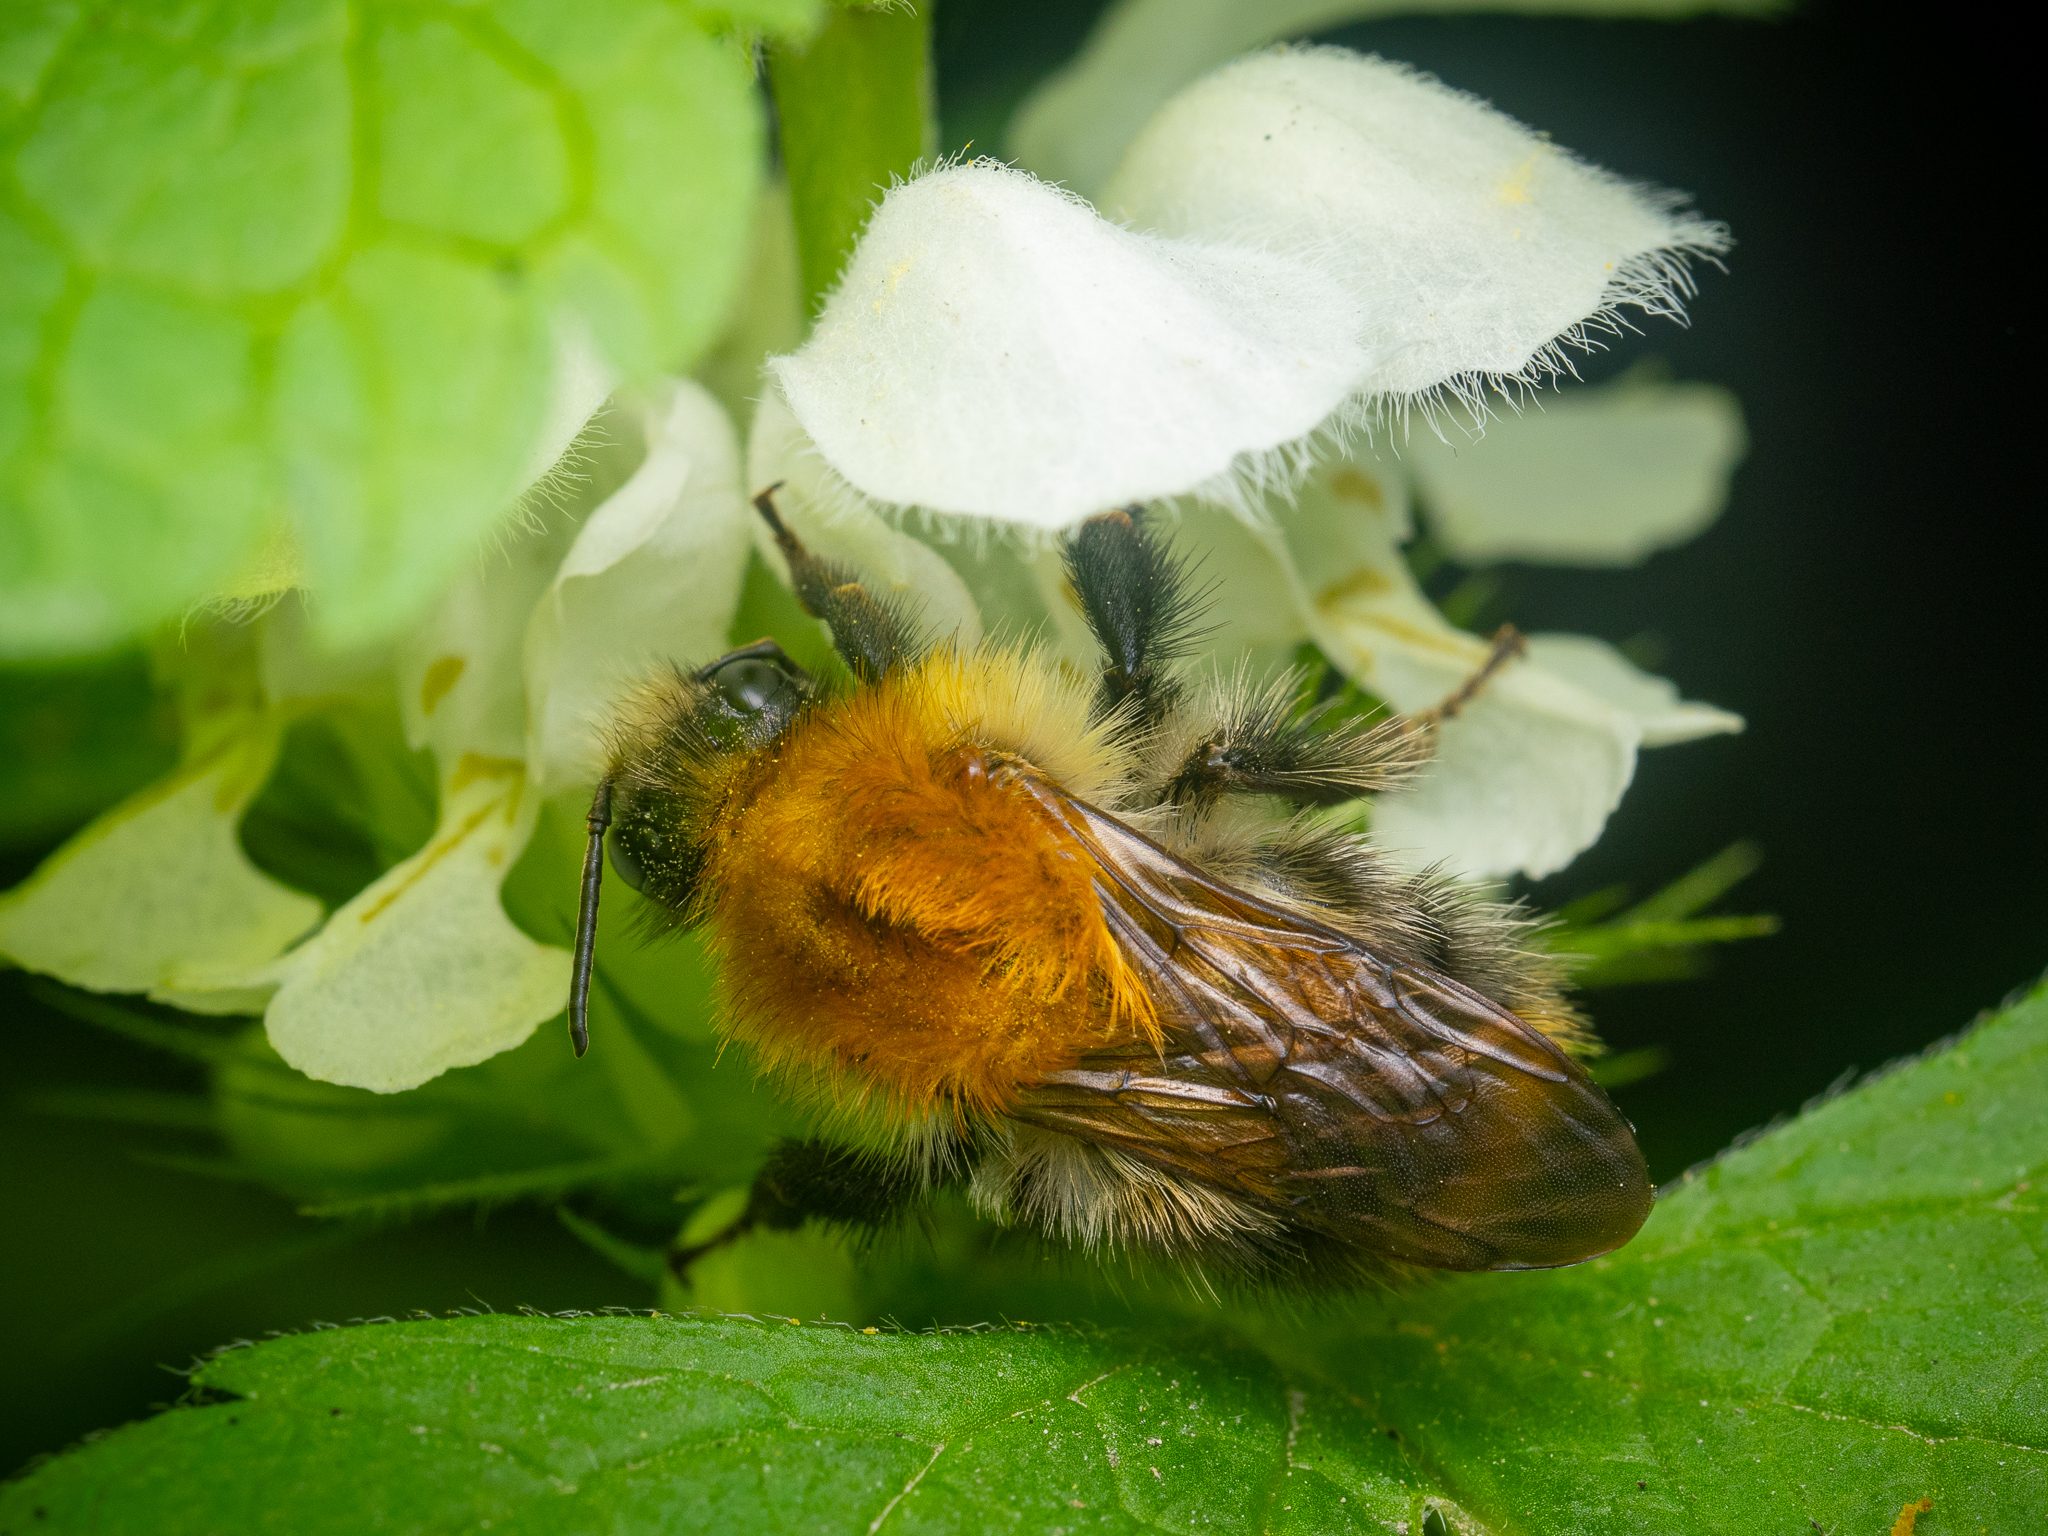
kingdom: Animalia
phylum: Arthropoda
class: Insecta
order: Hymenoptera
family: Apidae
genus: Bombus
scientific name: Bombus pascuorum
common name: Common carder bee
